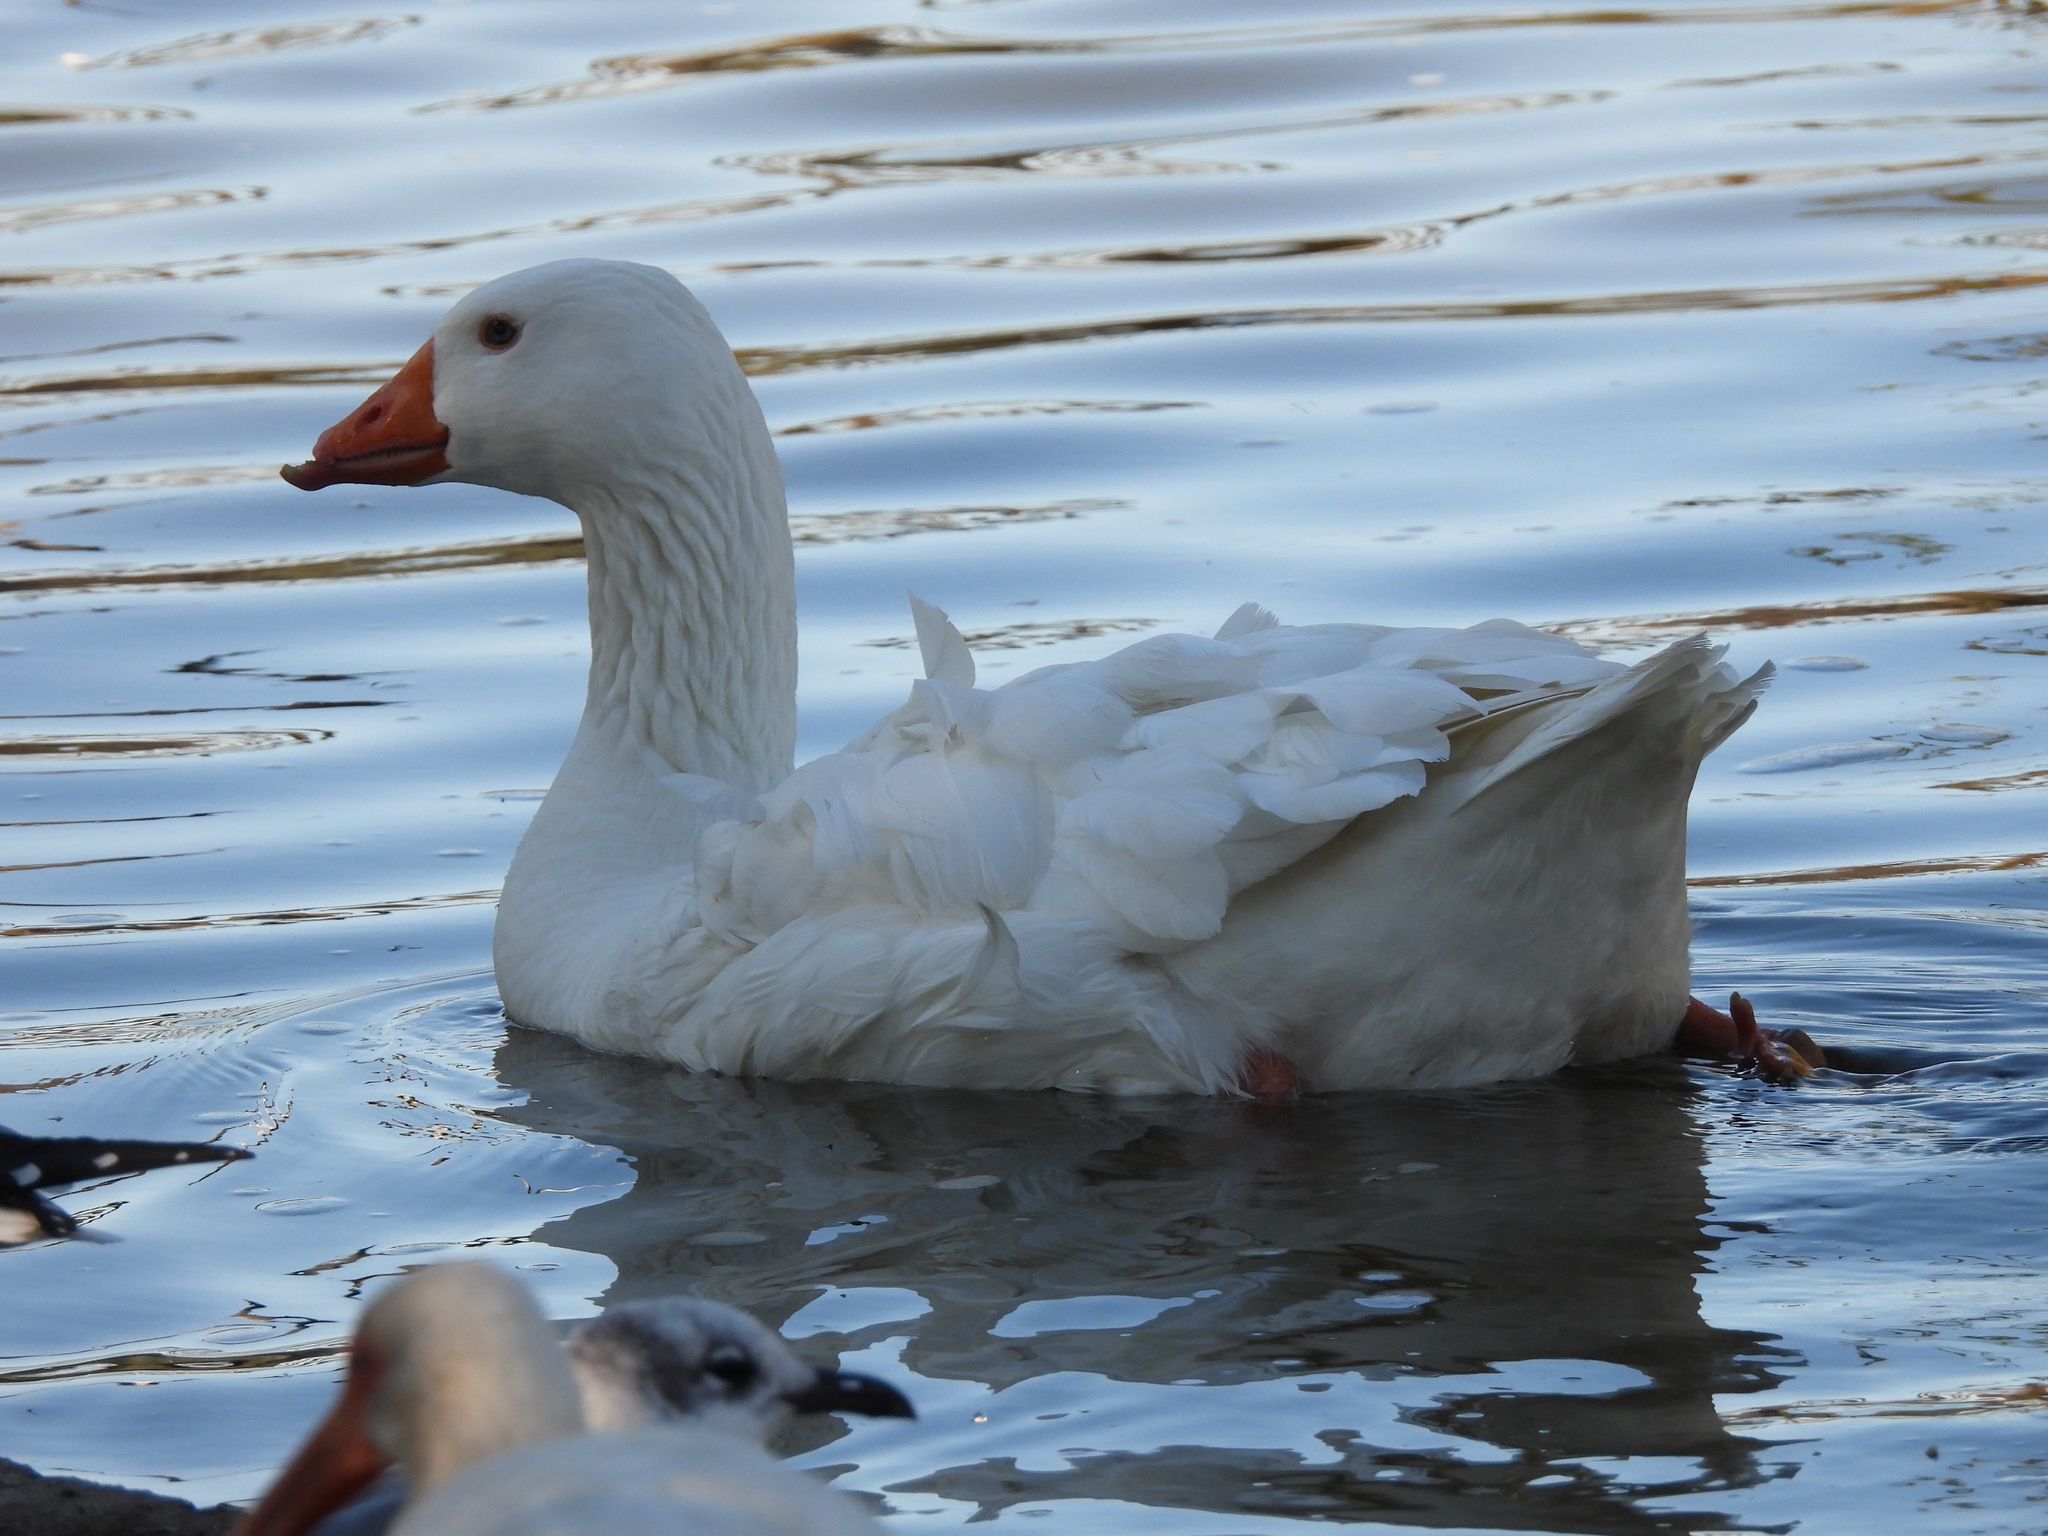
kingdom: Animalia
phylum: Chordata
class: Aves
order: Anseriformes
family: Anatidae
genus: Anser
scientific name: Anser anser
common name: Greylag goose
